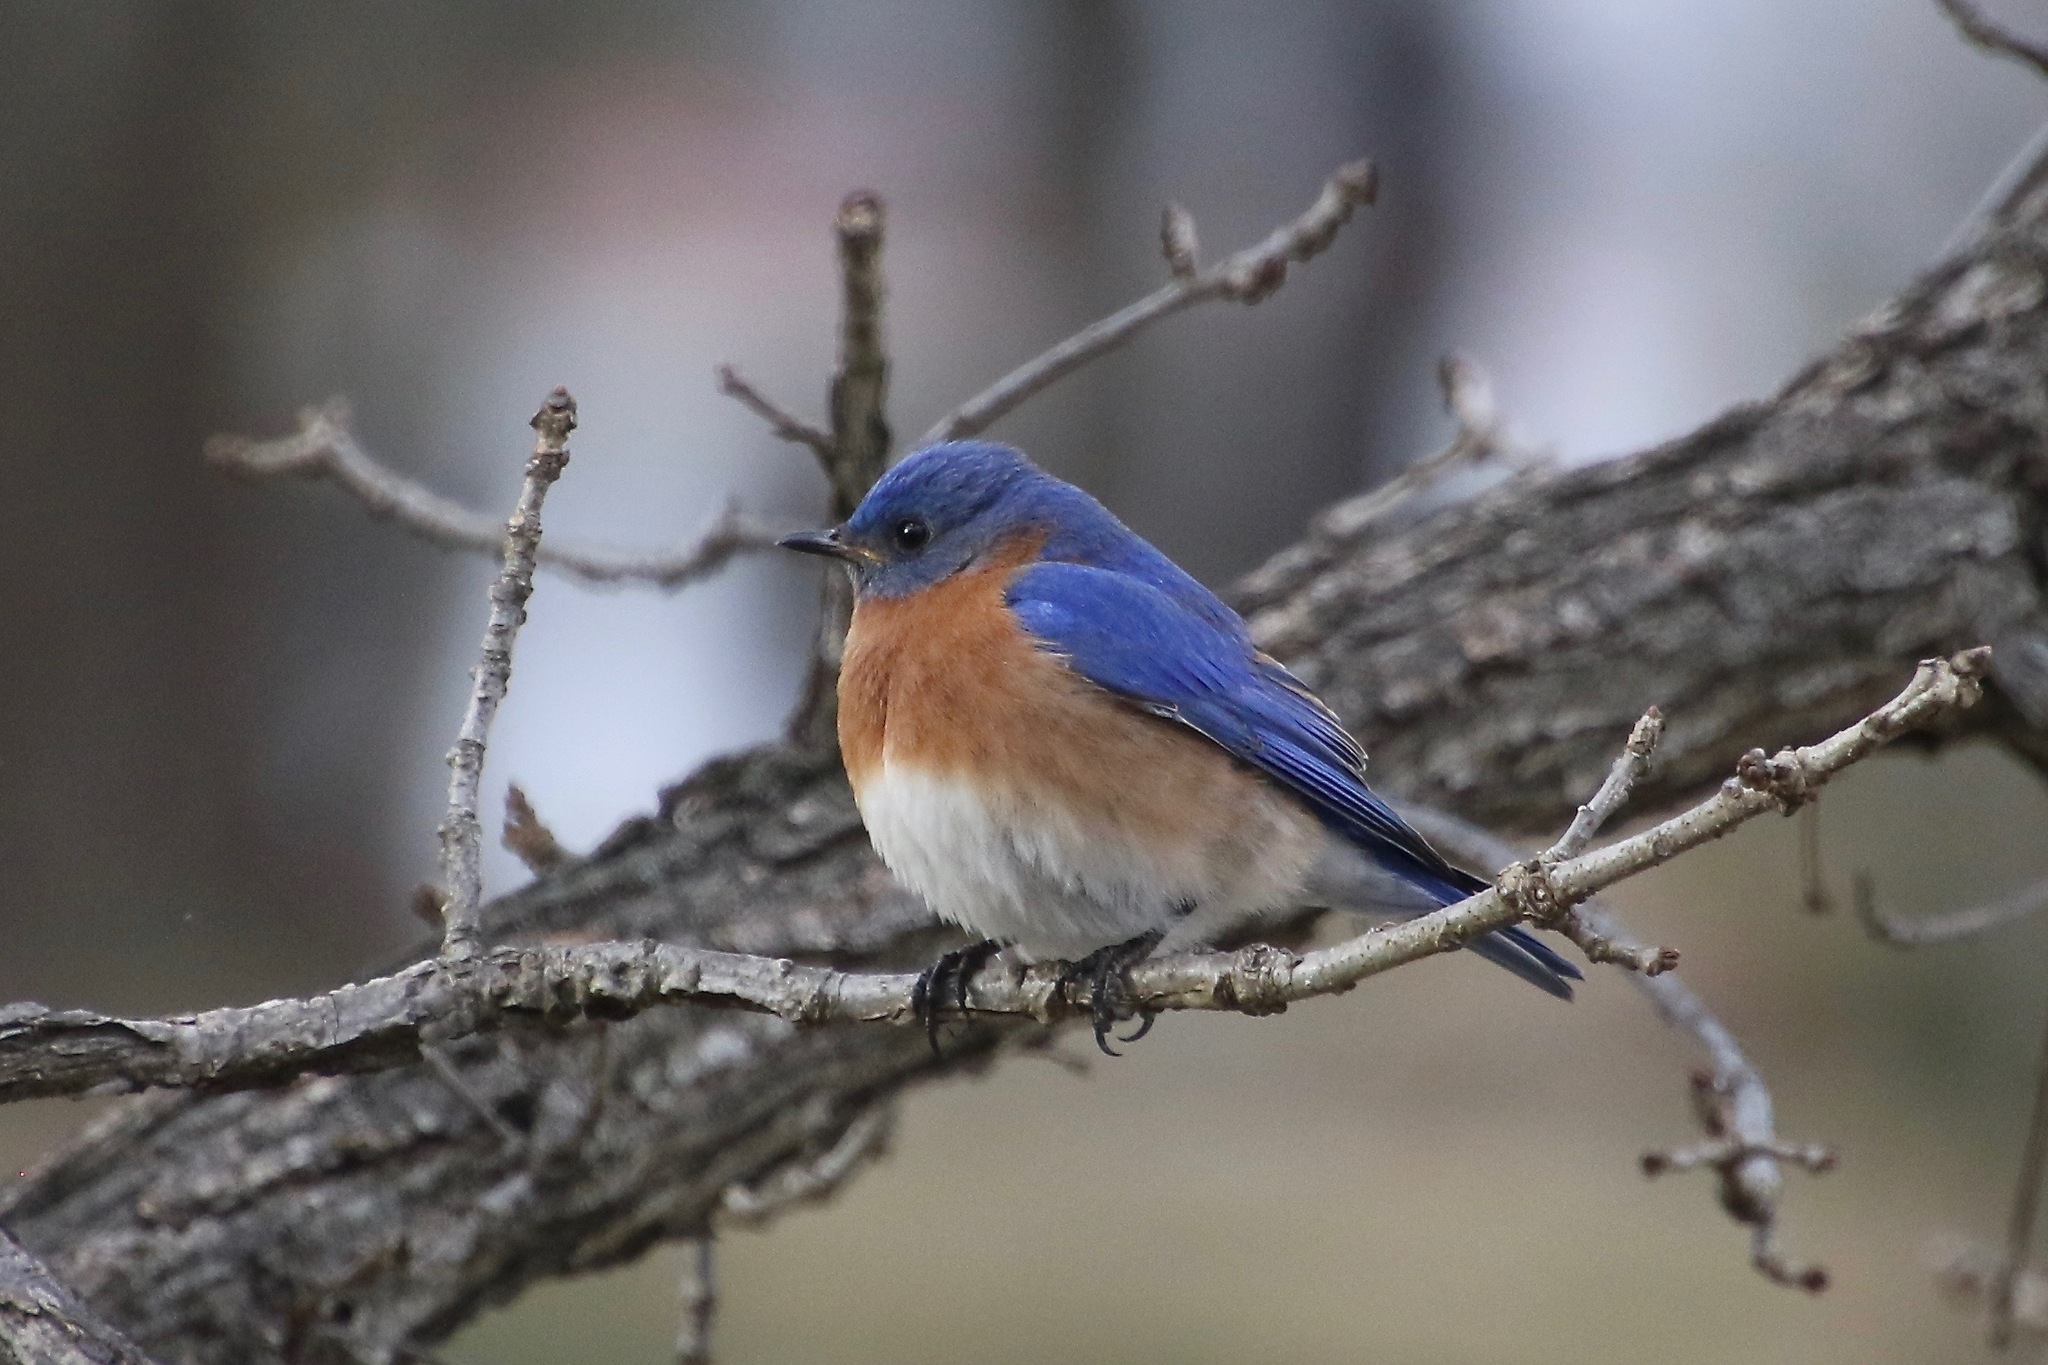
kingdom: Animalia
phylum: Chordata
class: Aves
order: Passeriformes
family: Turdidae
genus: Sialia
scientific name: Sialia sialis
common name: Eastern bluebird
